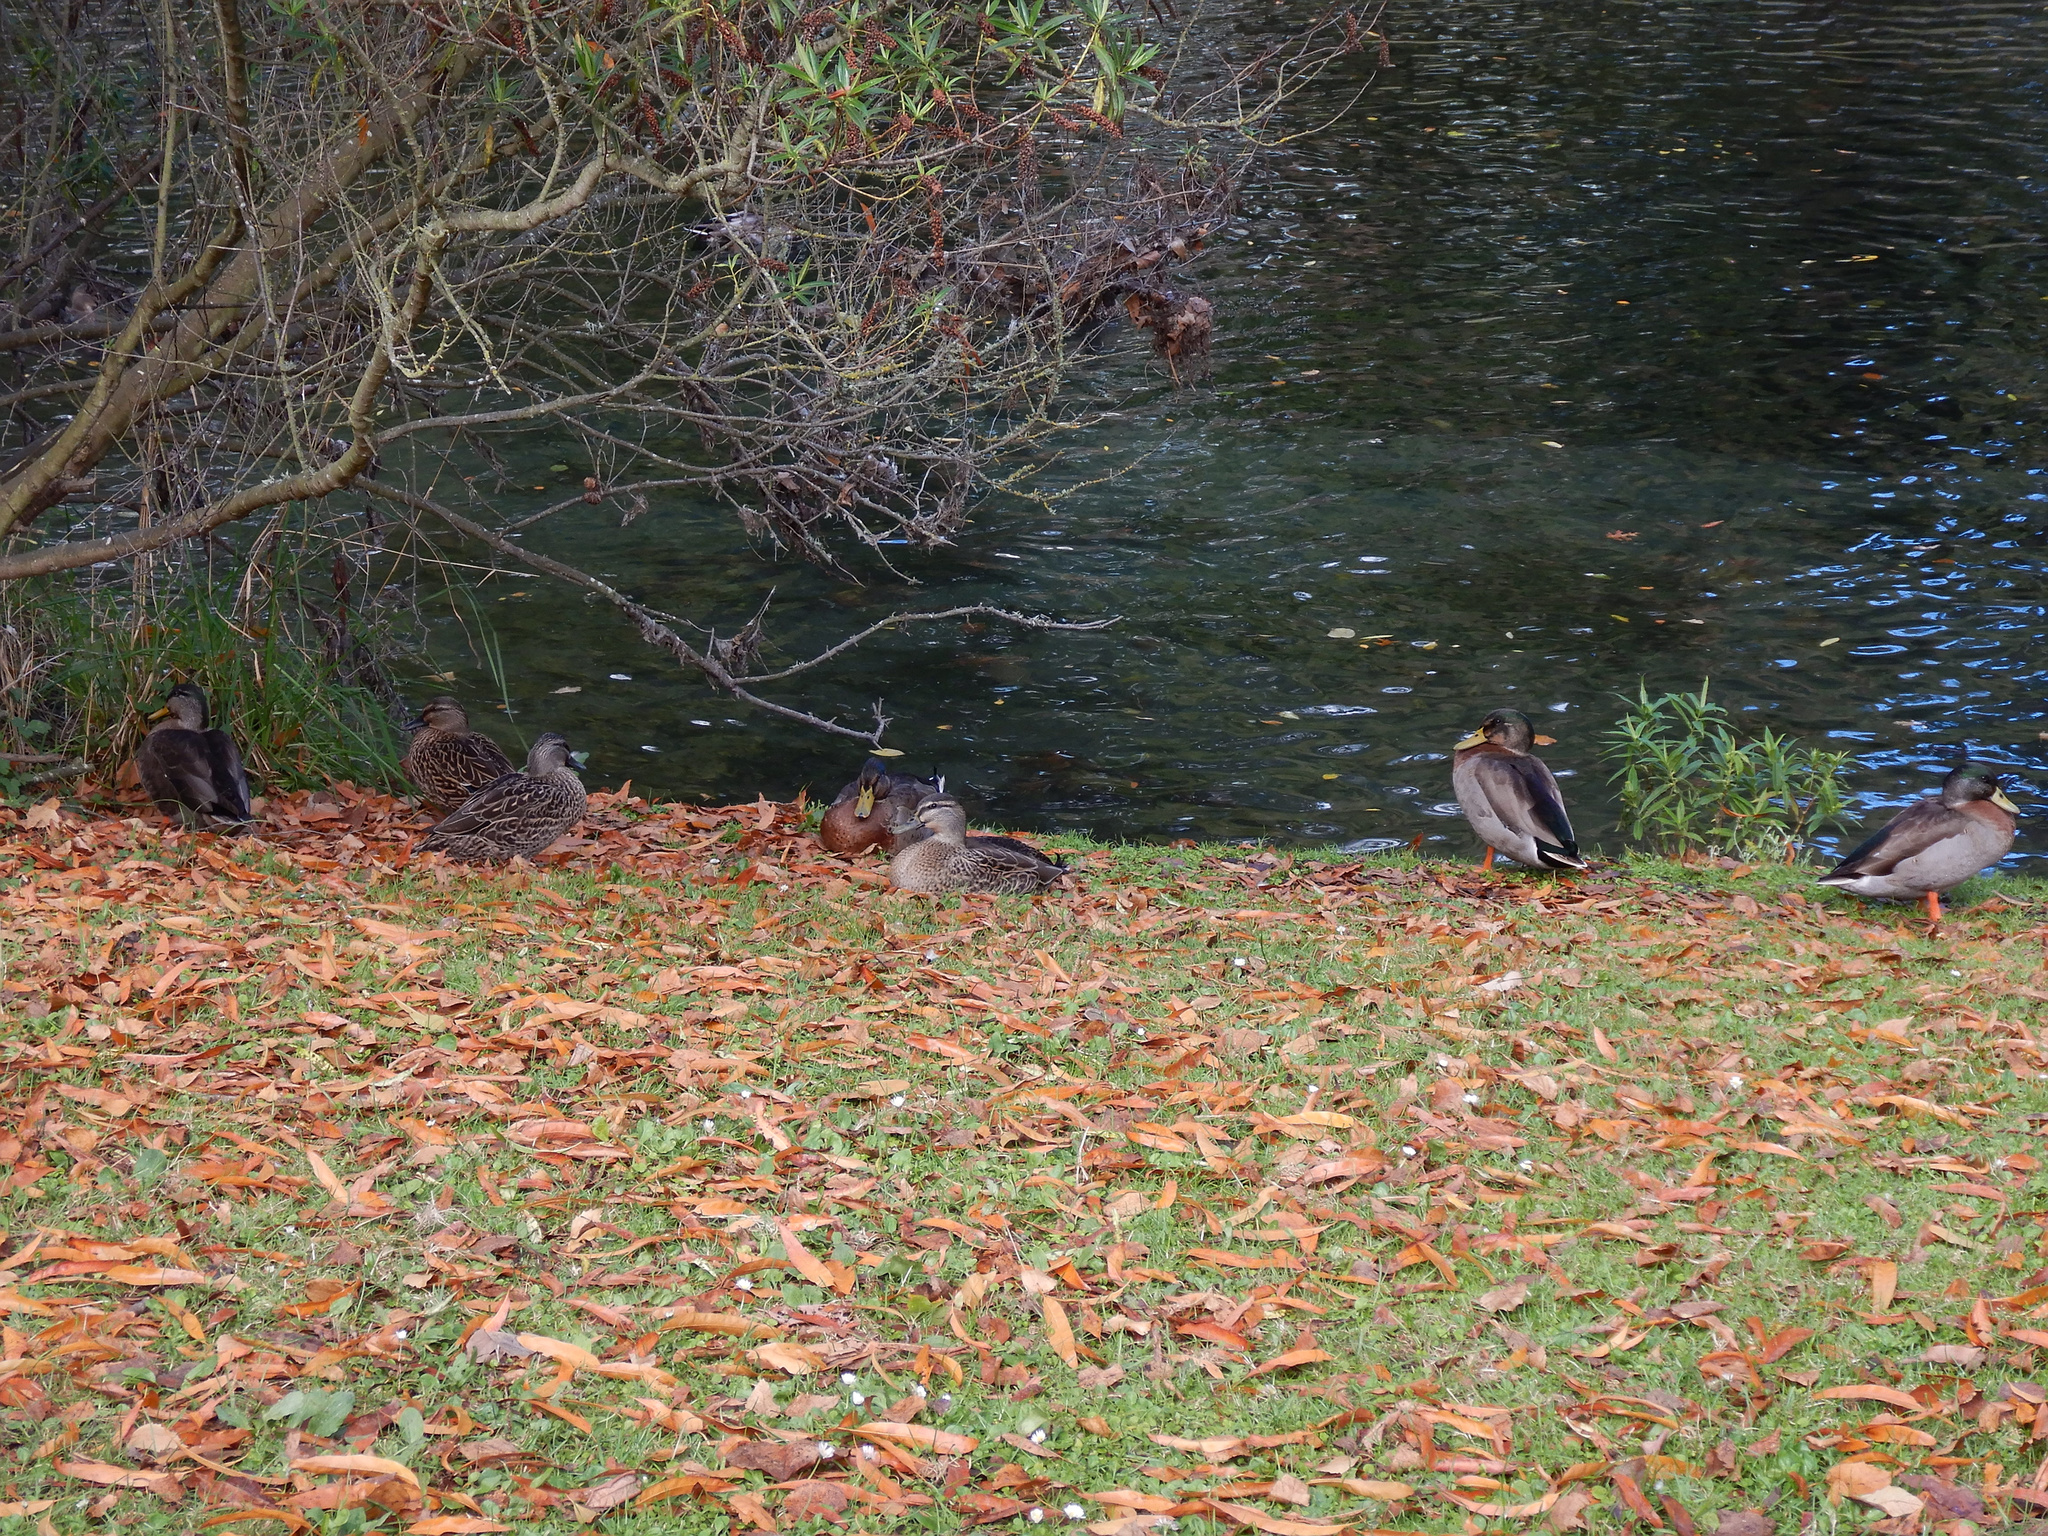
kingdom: Animalia
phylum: Chordata
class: Aves
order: Anseriformes
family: Anatidae
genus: Anas
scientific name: Anas
